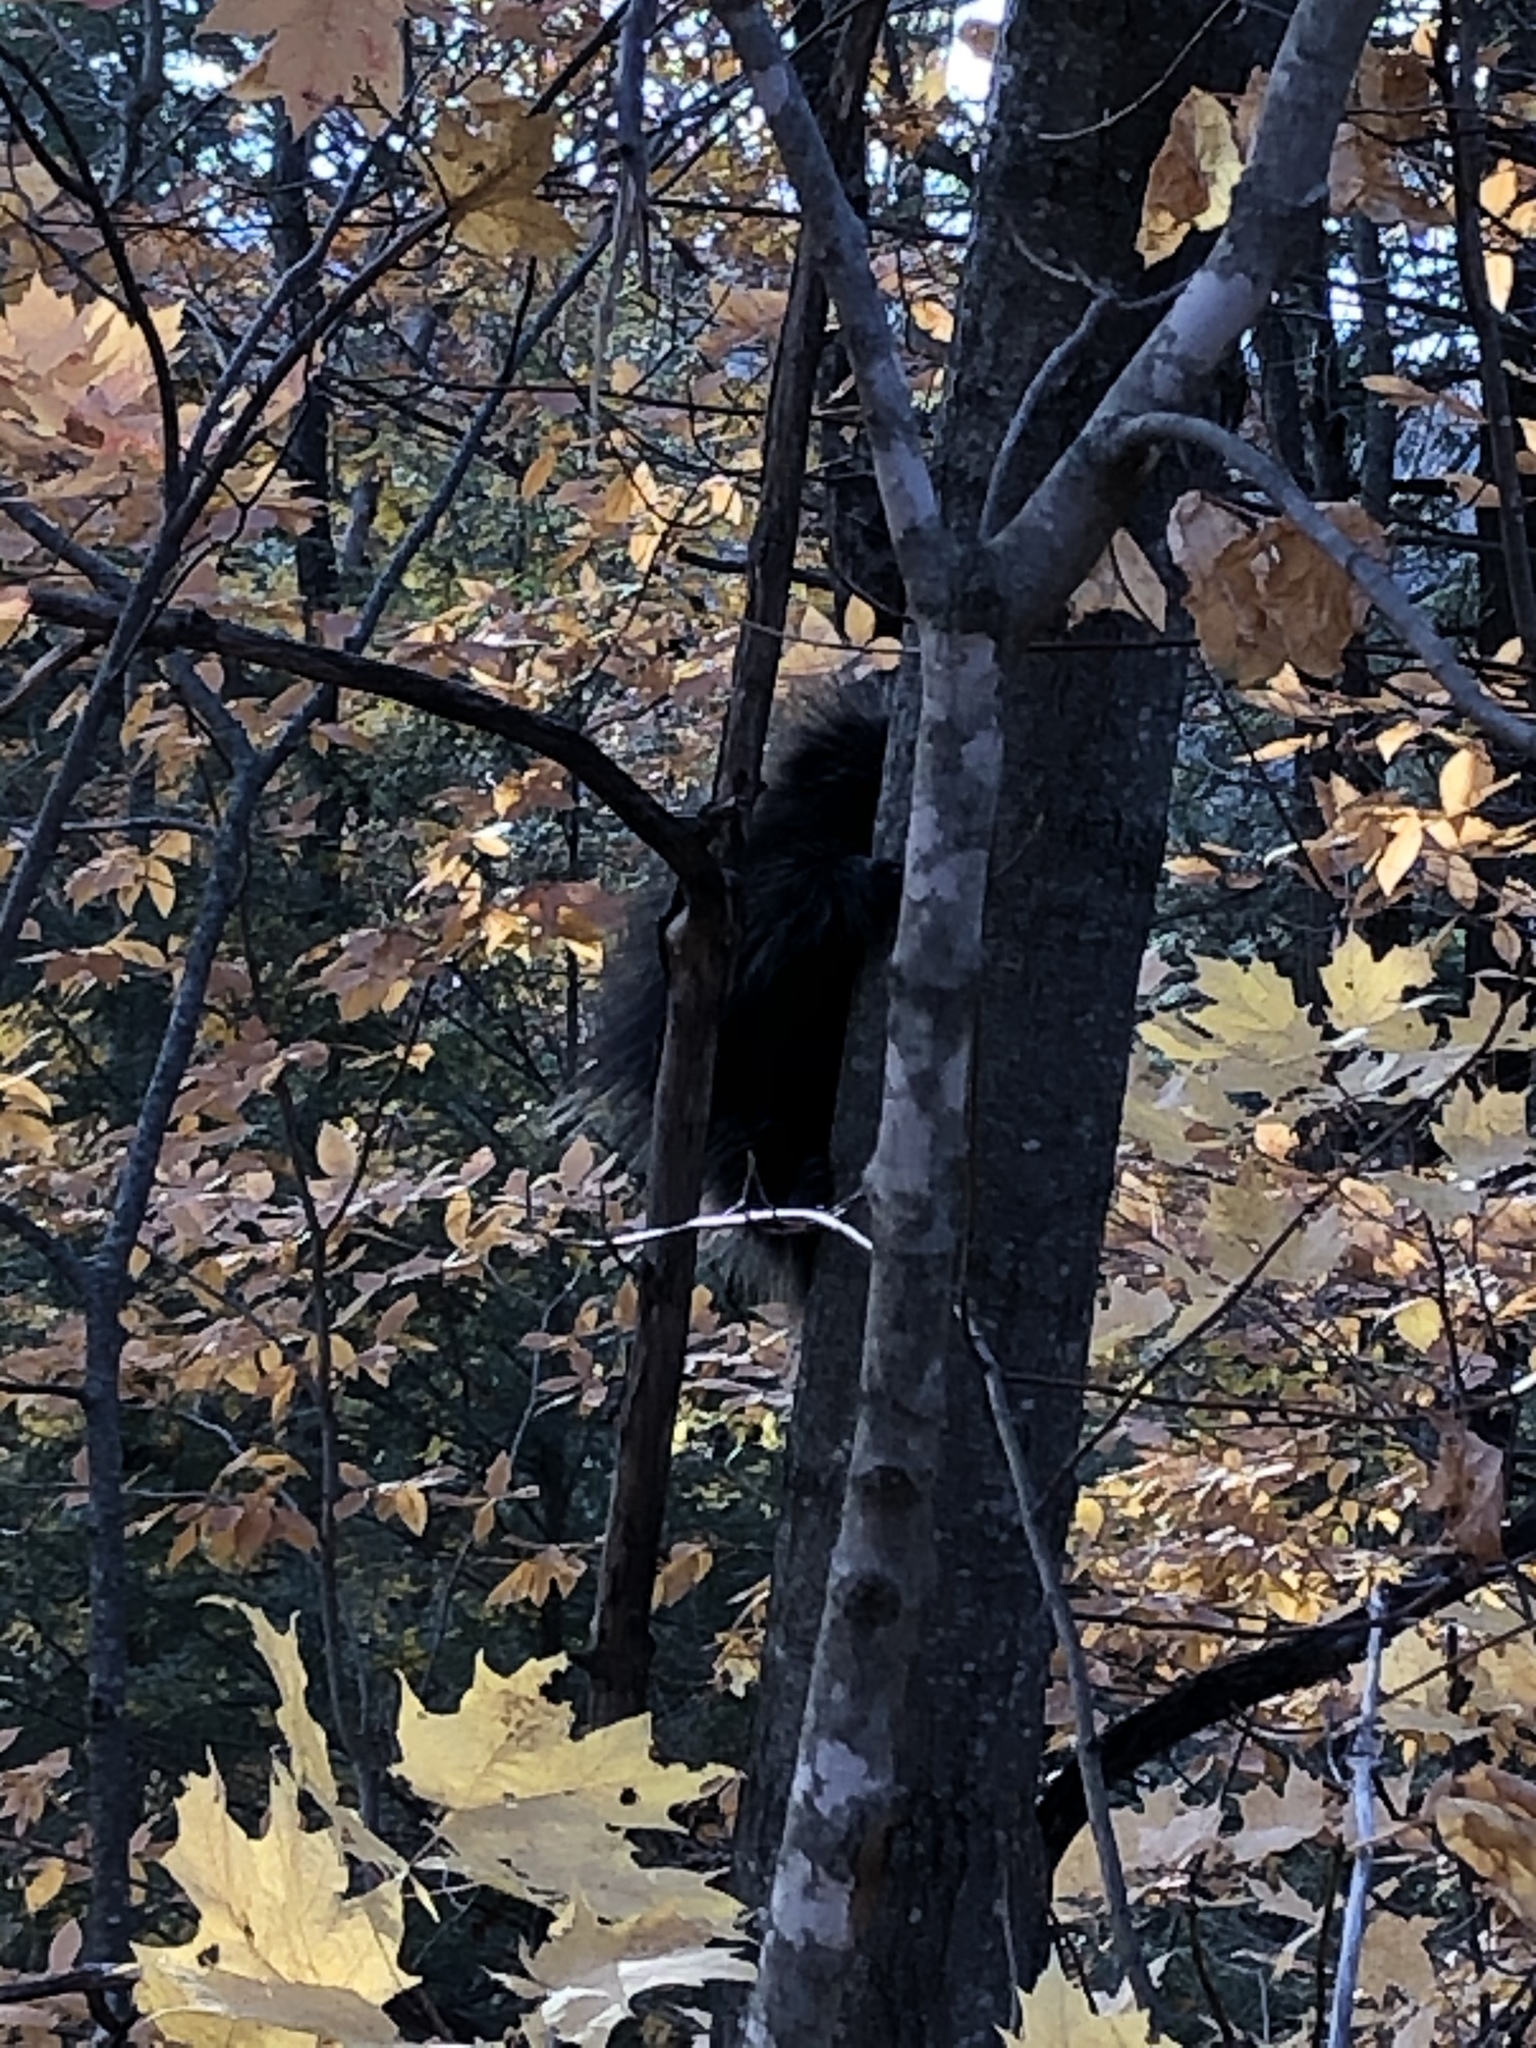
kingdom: Animalia
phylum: Chordata
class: Mammalia
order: Rodentia
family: Erethizontidae
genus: Erethizon
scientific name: Erethizon dorsatus
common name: North american porcupine
